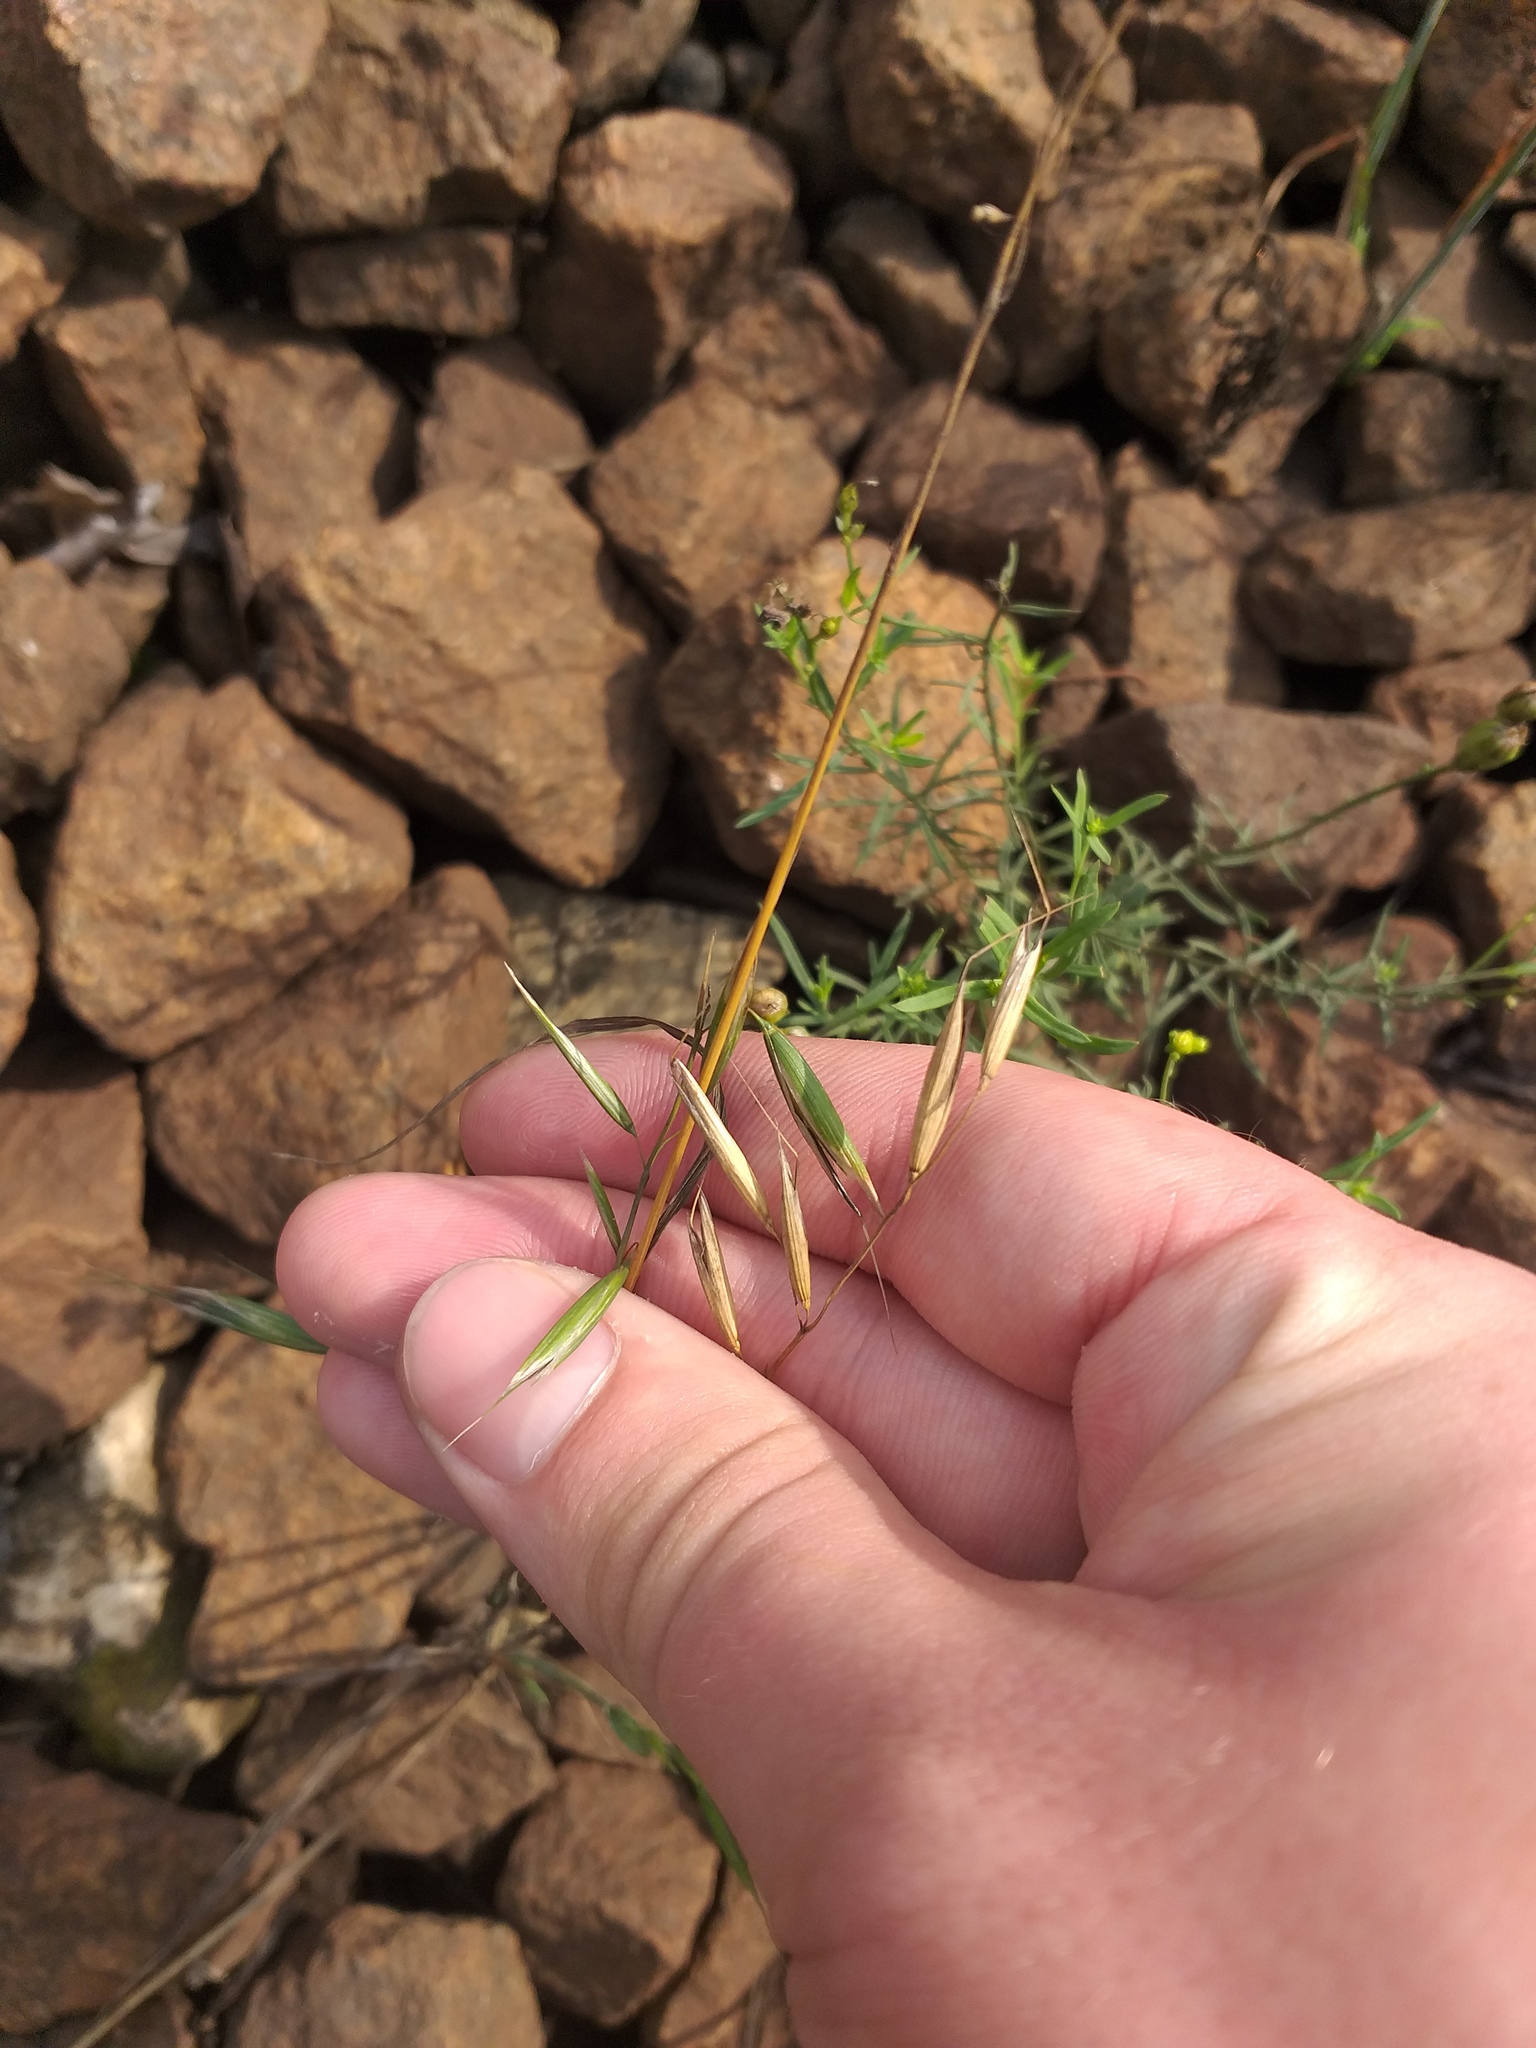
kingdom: Plantae
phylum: Tracheophyta
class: Liliopsida
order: Poales
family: Poaceae
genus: Avena
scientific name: Avena fatua
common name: Wild oat
